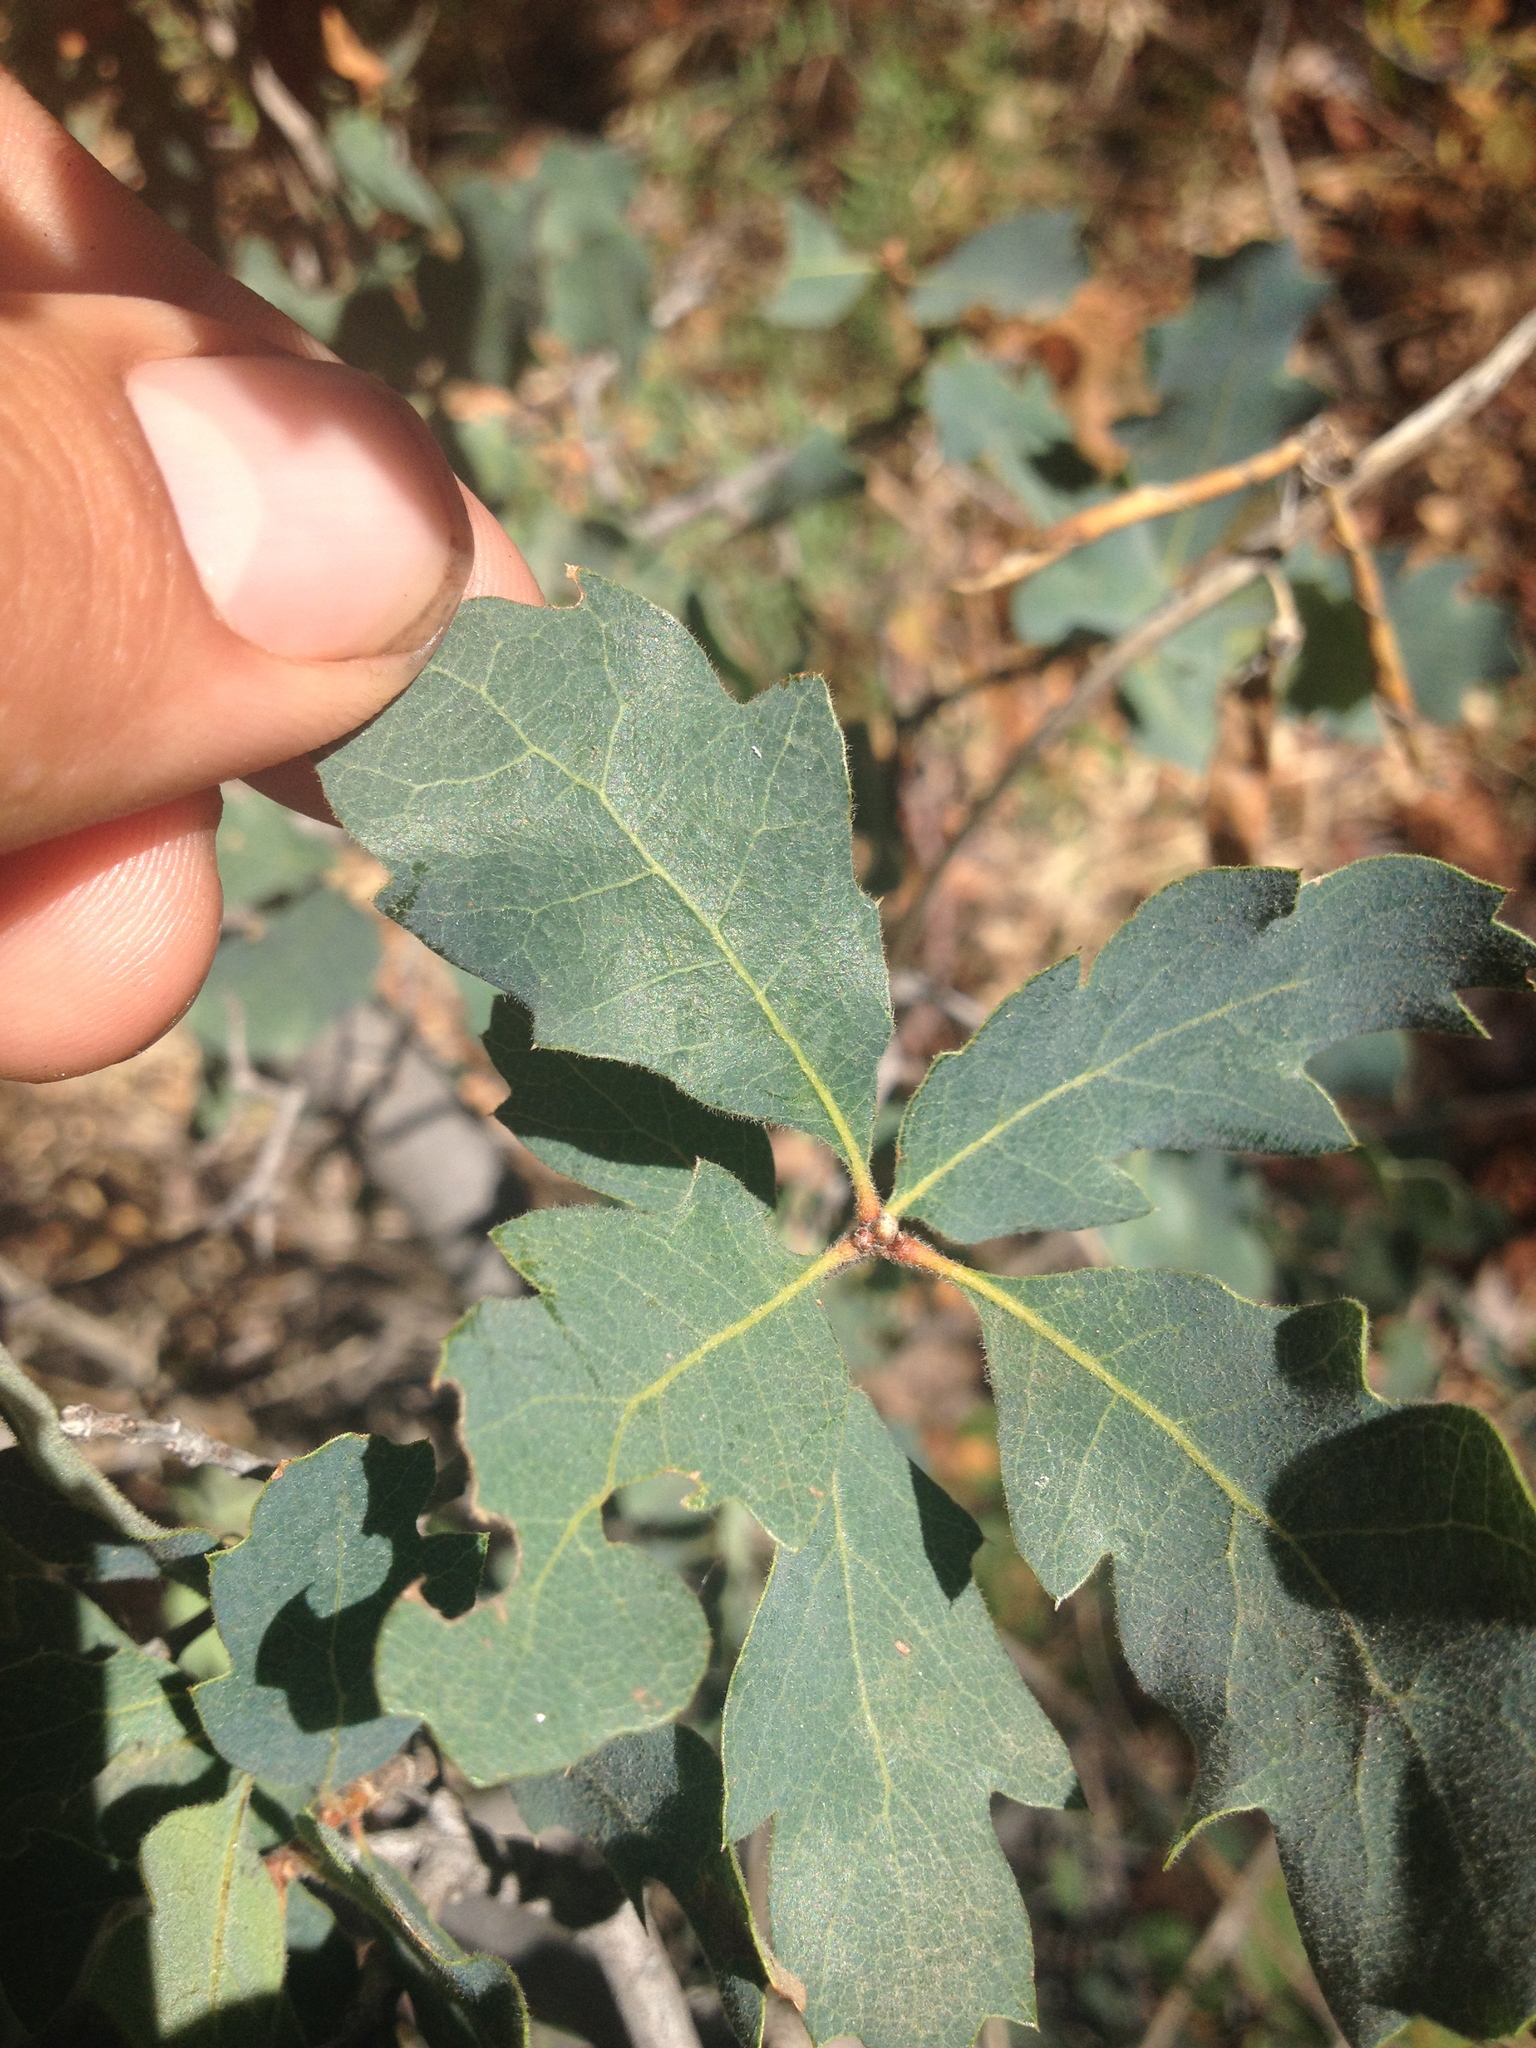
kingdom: Plantae
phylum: Tracheophyta
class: Magnoliopsida
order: Fagales
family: Fagaceae
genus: Quercus
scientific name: Quercus douglasii
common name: Blue oak
